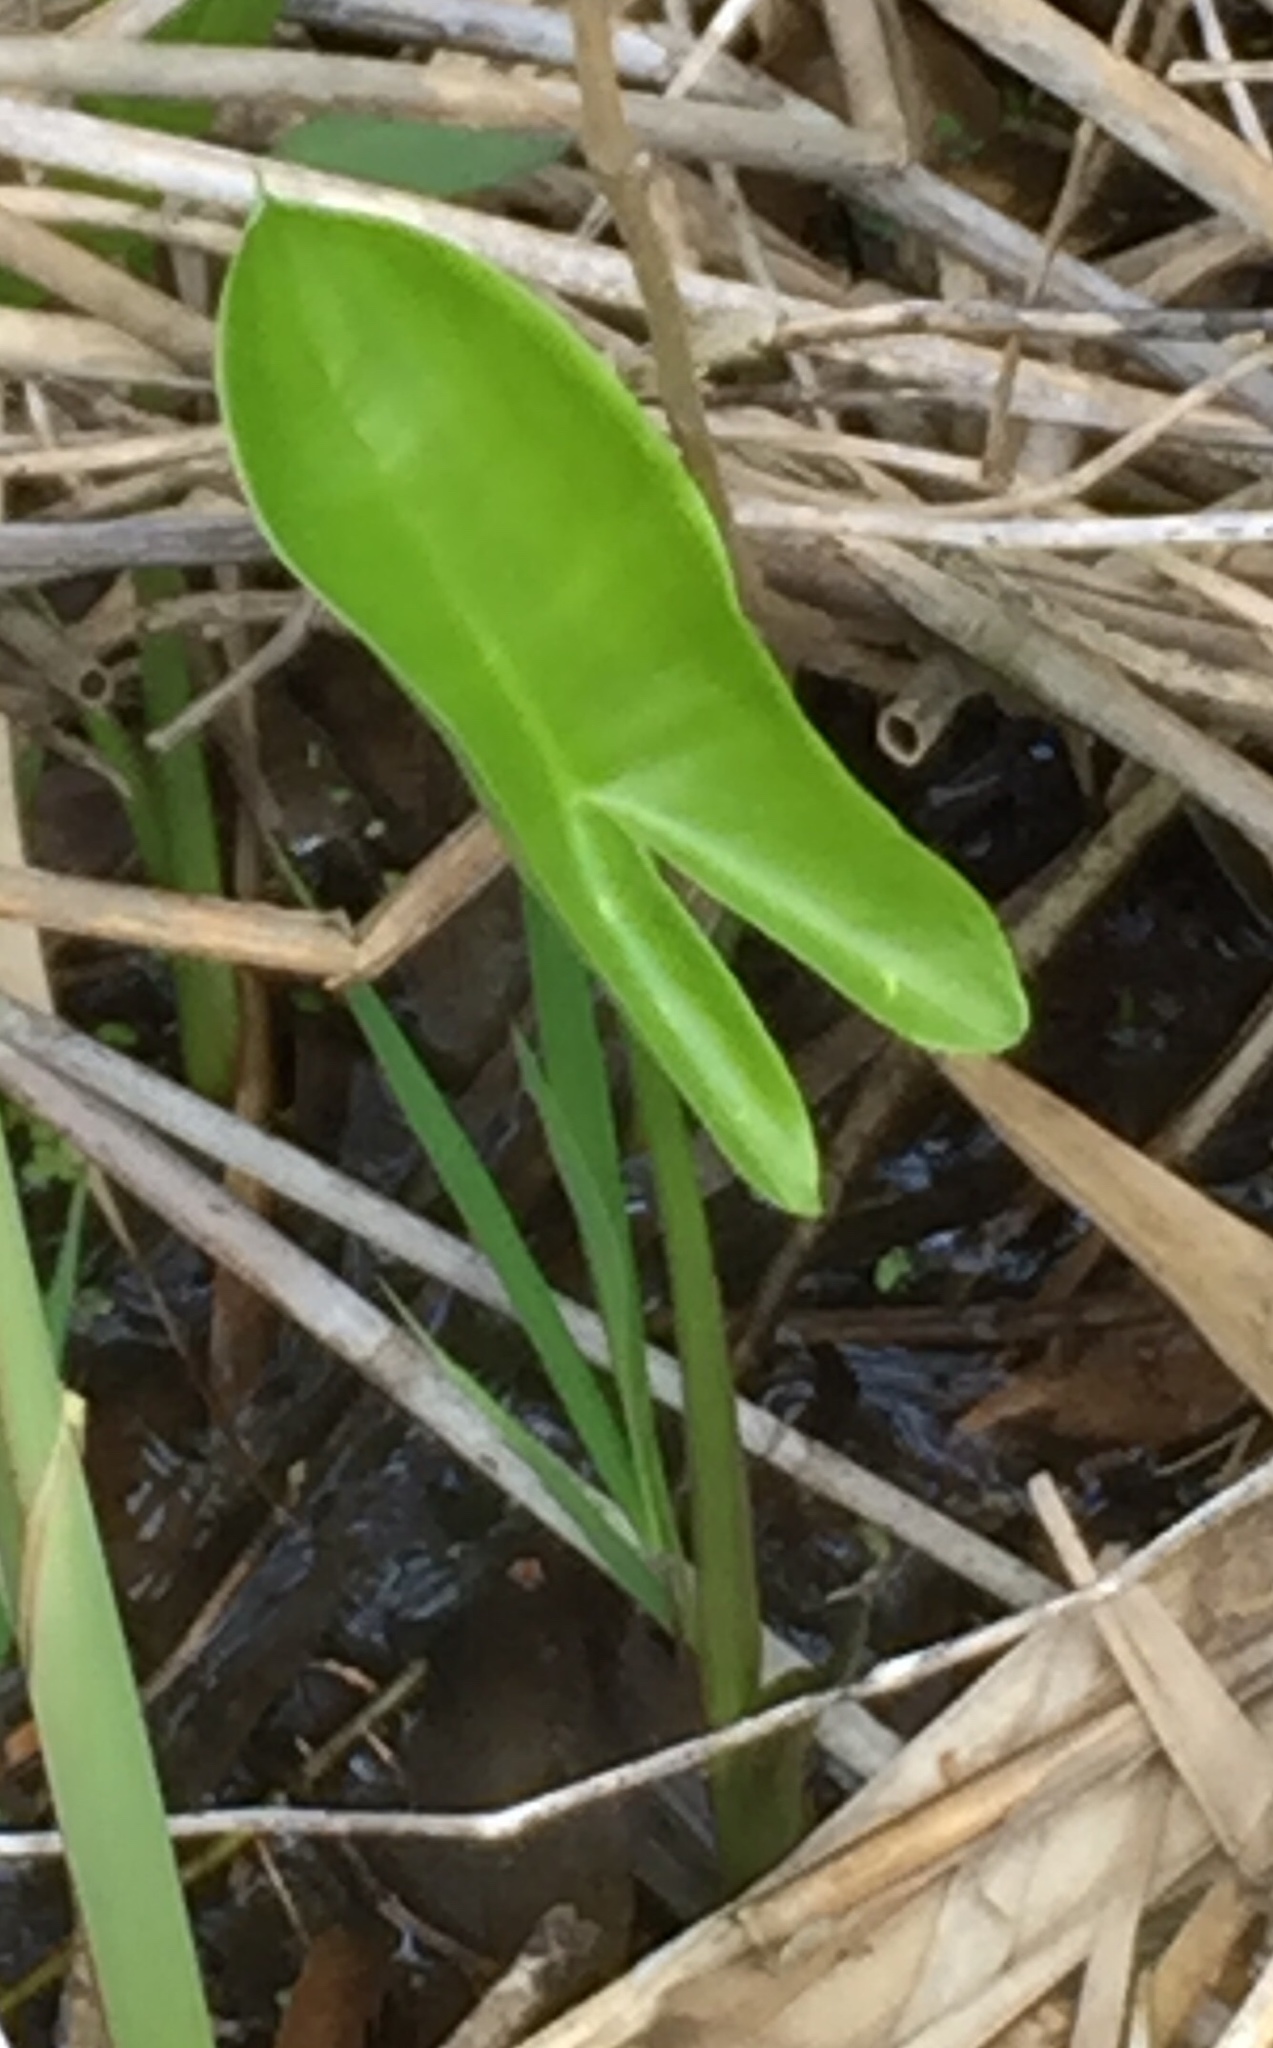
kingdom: Plantae
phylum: Tracheophyta
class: Liliopsida
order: Alismatales
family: Araceae
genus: Peltandra
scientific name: Peltandra virginica
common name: Arrow arum
